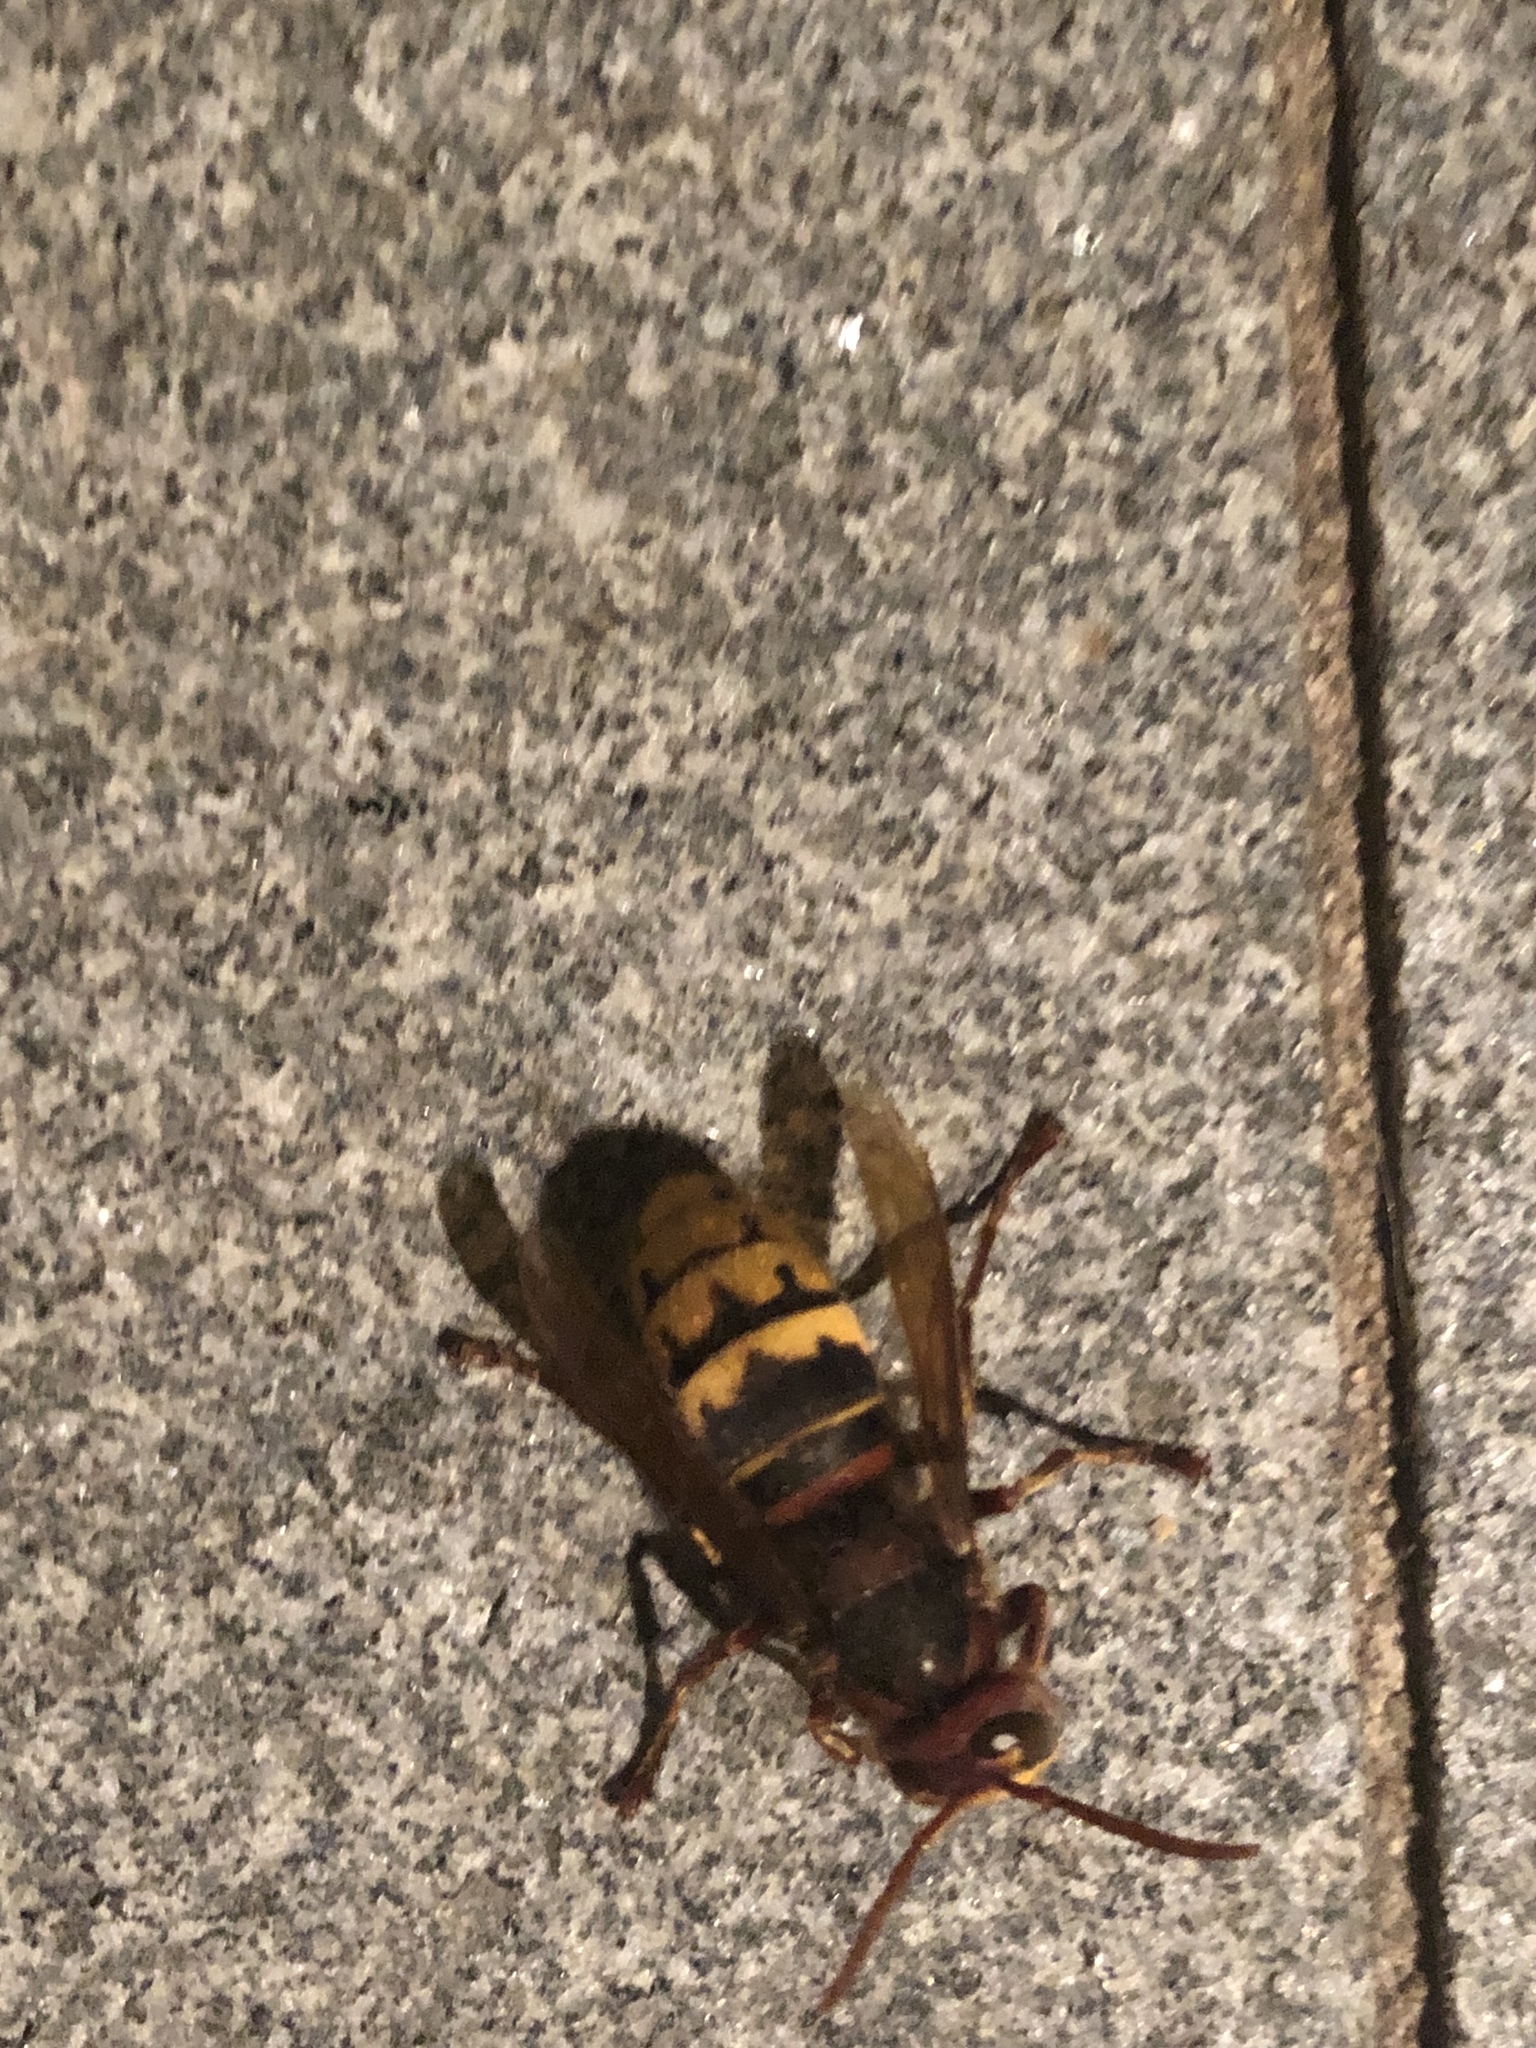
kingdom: Animalia
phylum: Arthropoda
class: Insecta
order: Hymenoptera
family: Vespidae
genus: Vespa
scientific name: Vespa crabro
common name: Hornet
